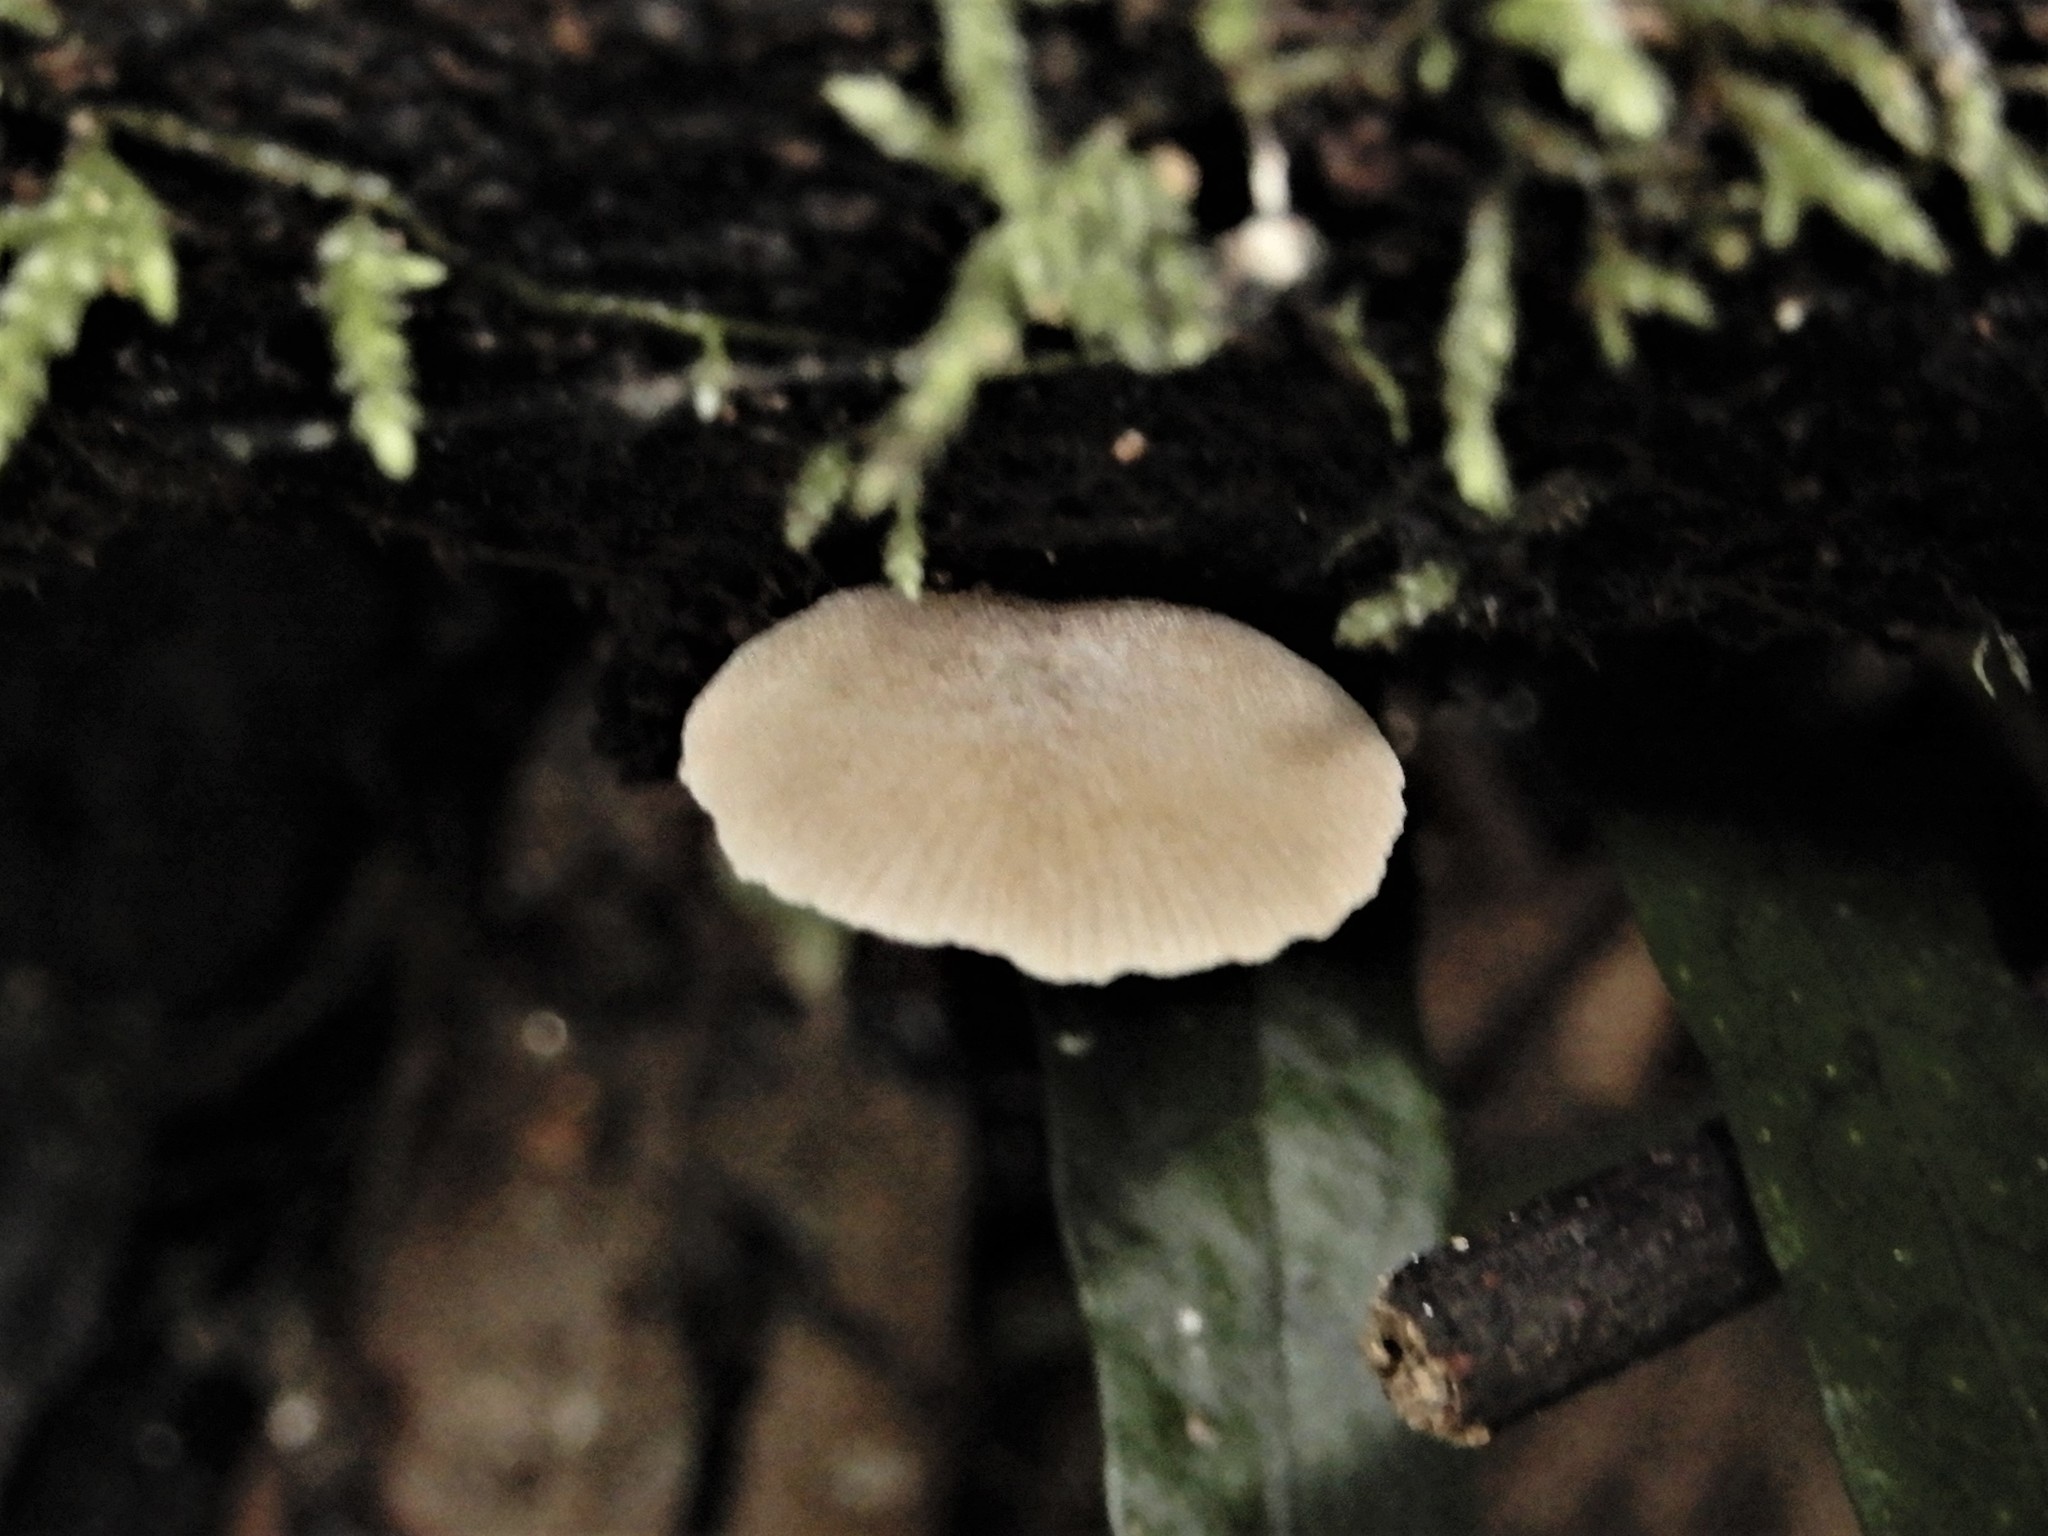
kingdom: Fungi
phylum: Basidiomycota
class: Agaricomycetes
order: Agaricales
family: Crepidotaceae
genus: Simocybe
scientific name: Simocybe austrorubi
